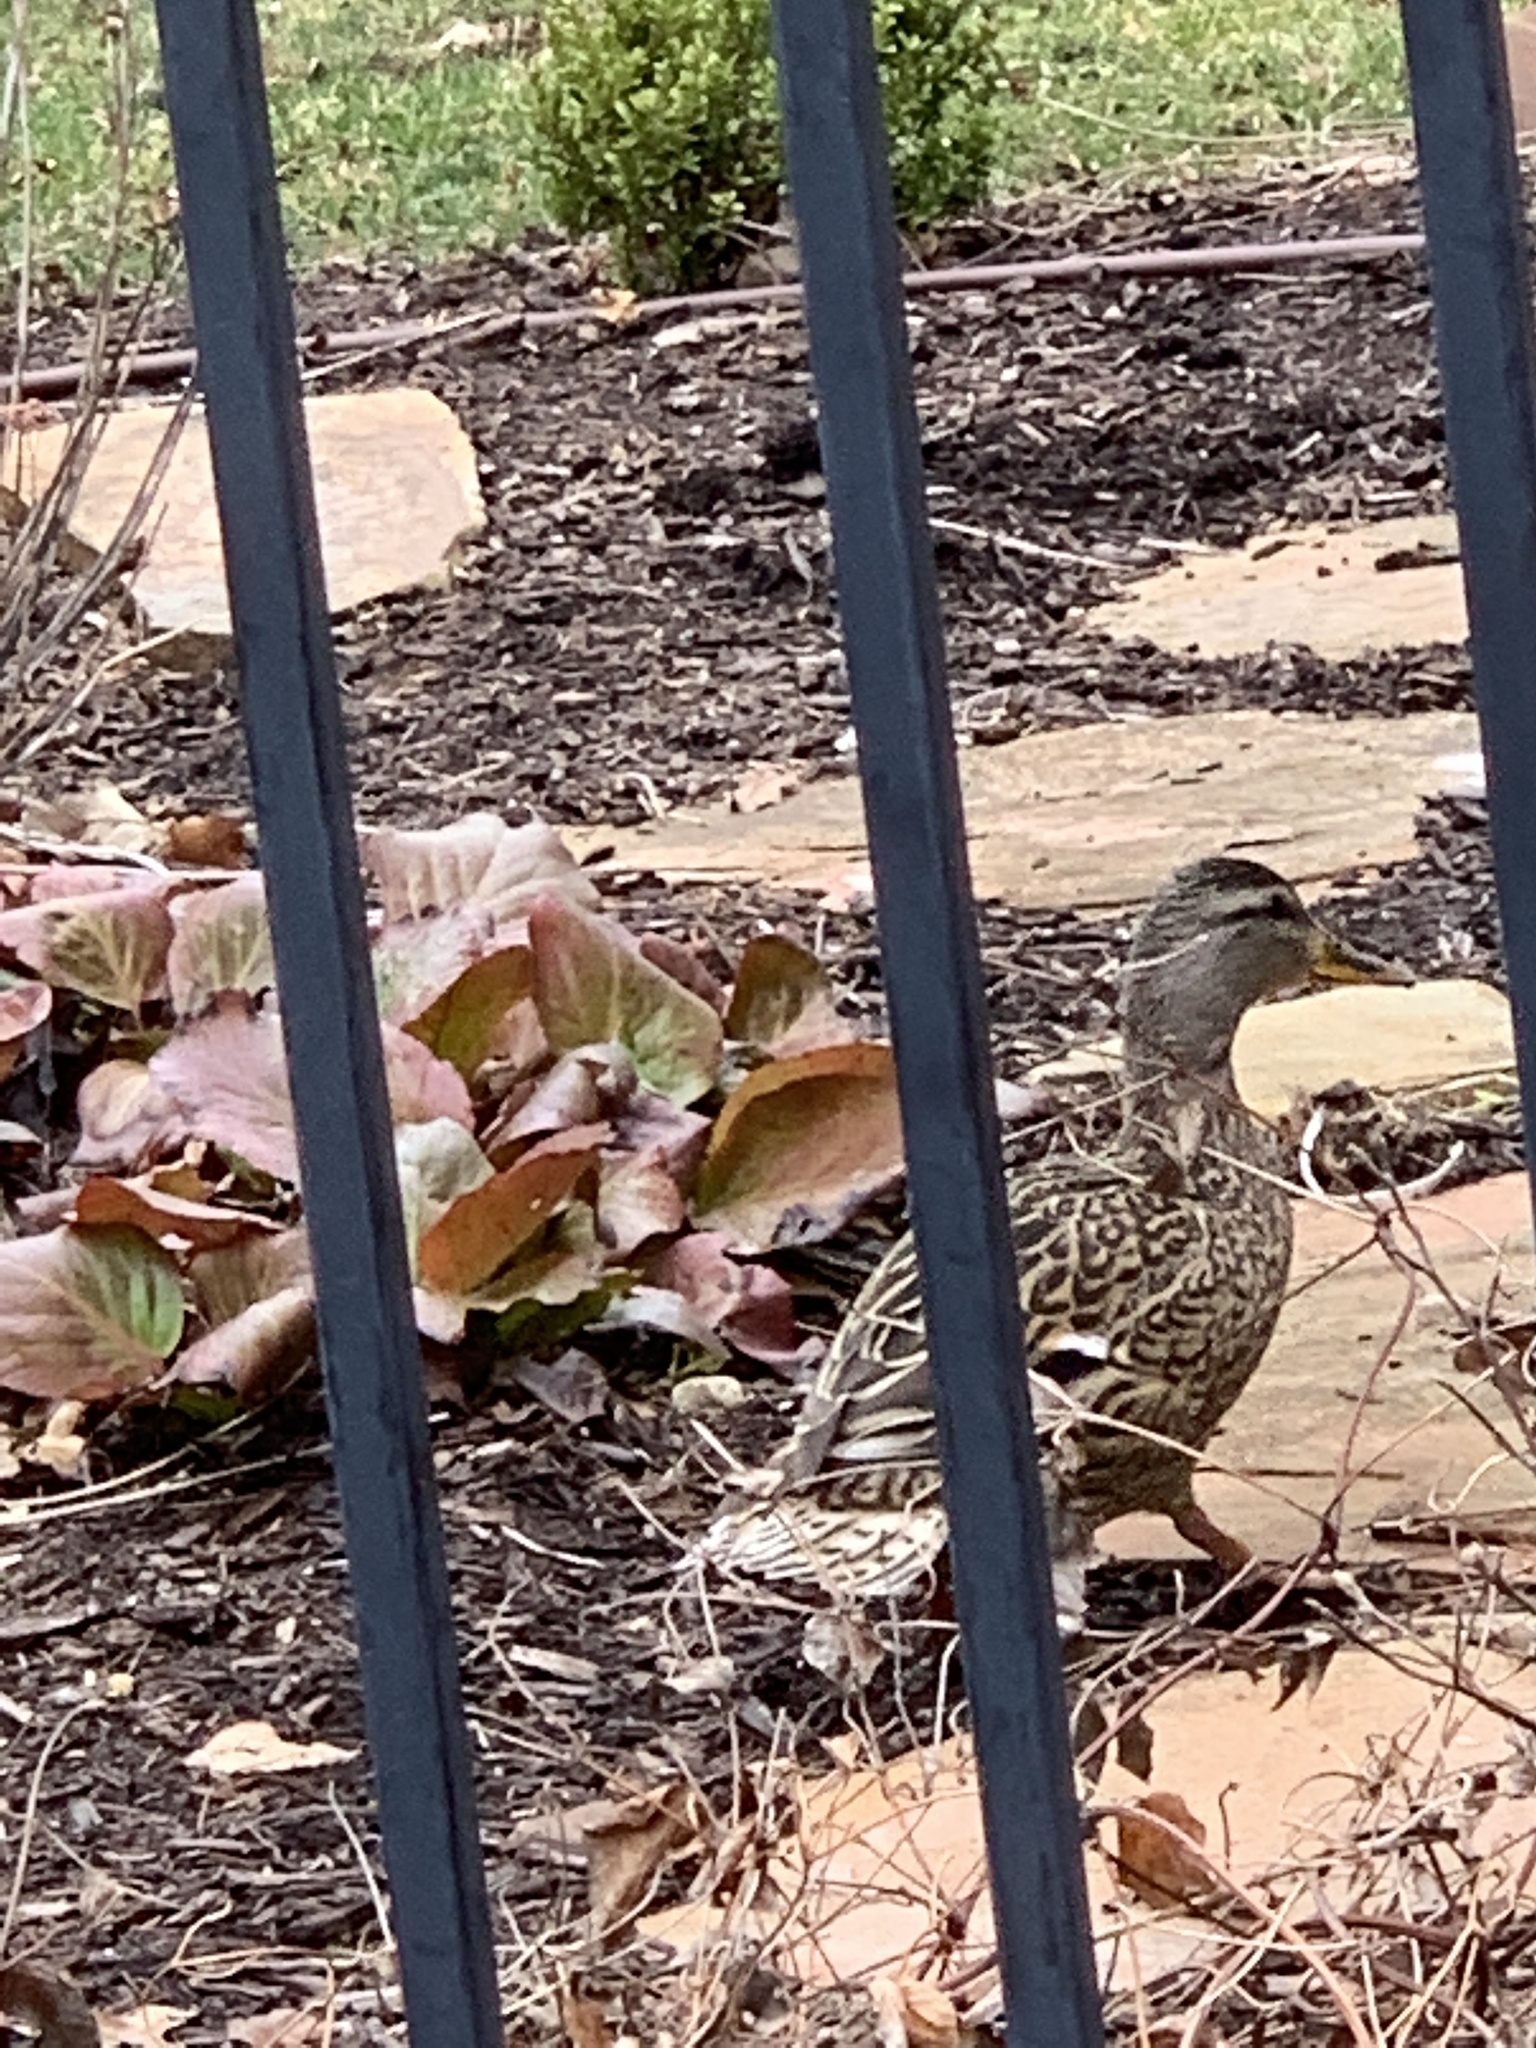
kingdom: Animalia
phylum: Chordata
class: Aves
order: Anseriformes
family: Anatidae
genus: Anas
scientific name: Anas platyrhynchos
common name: Mallard
